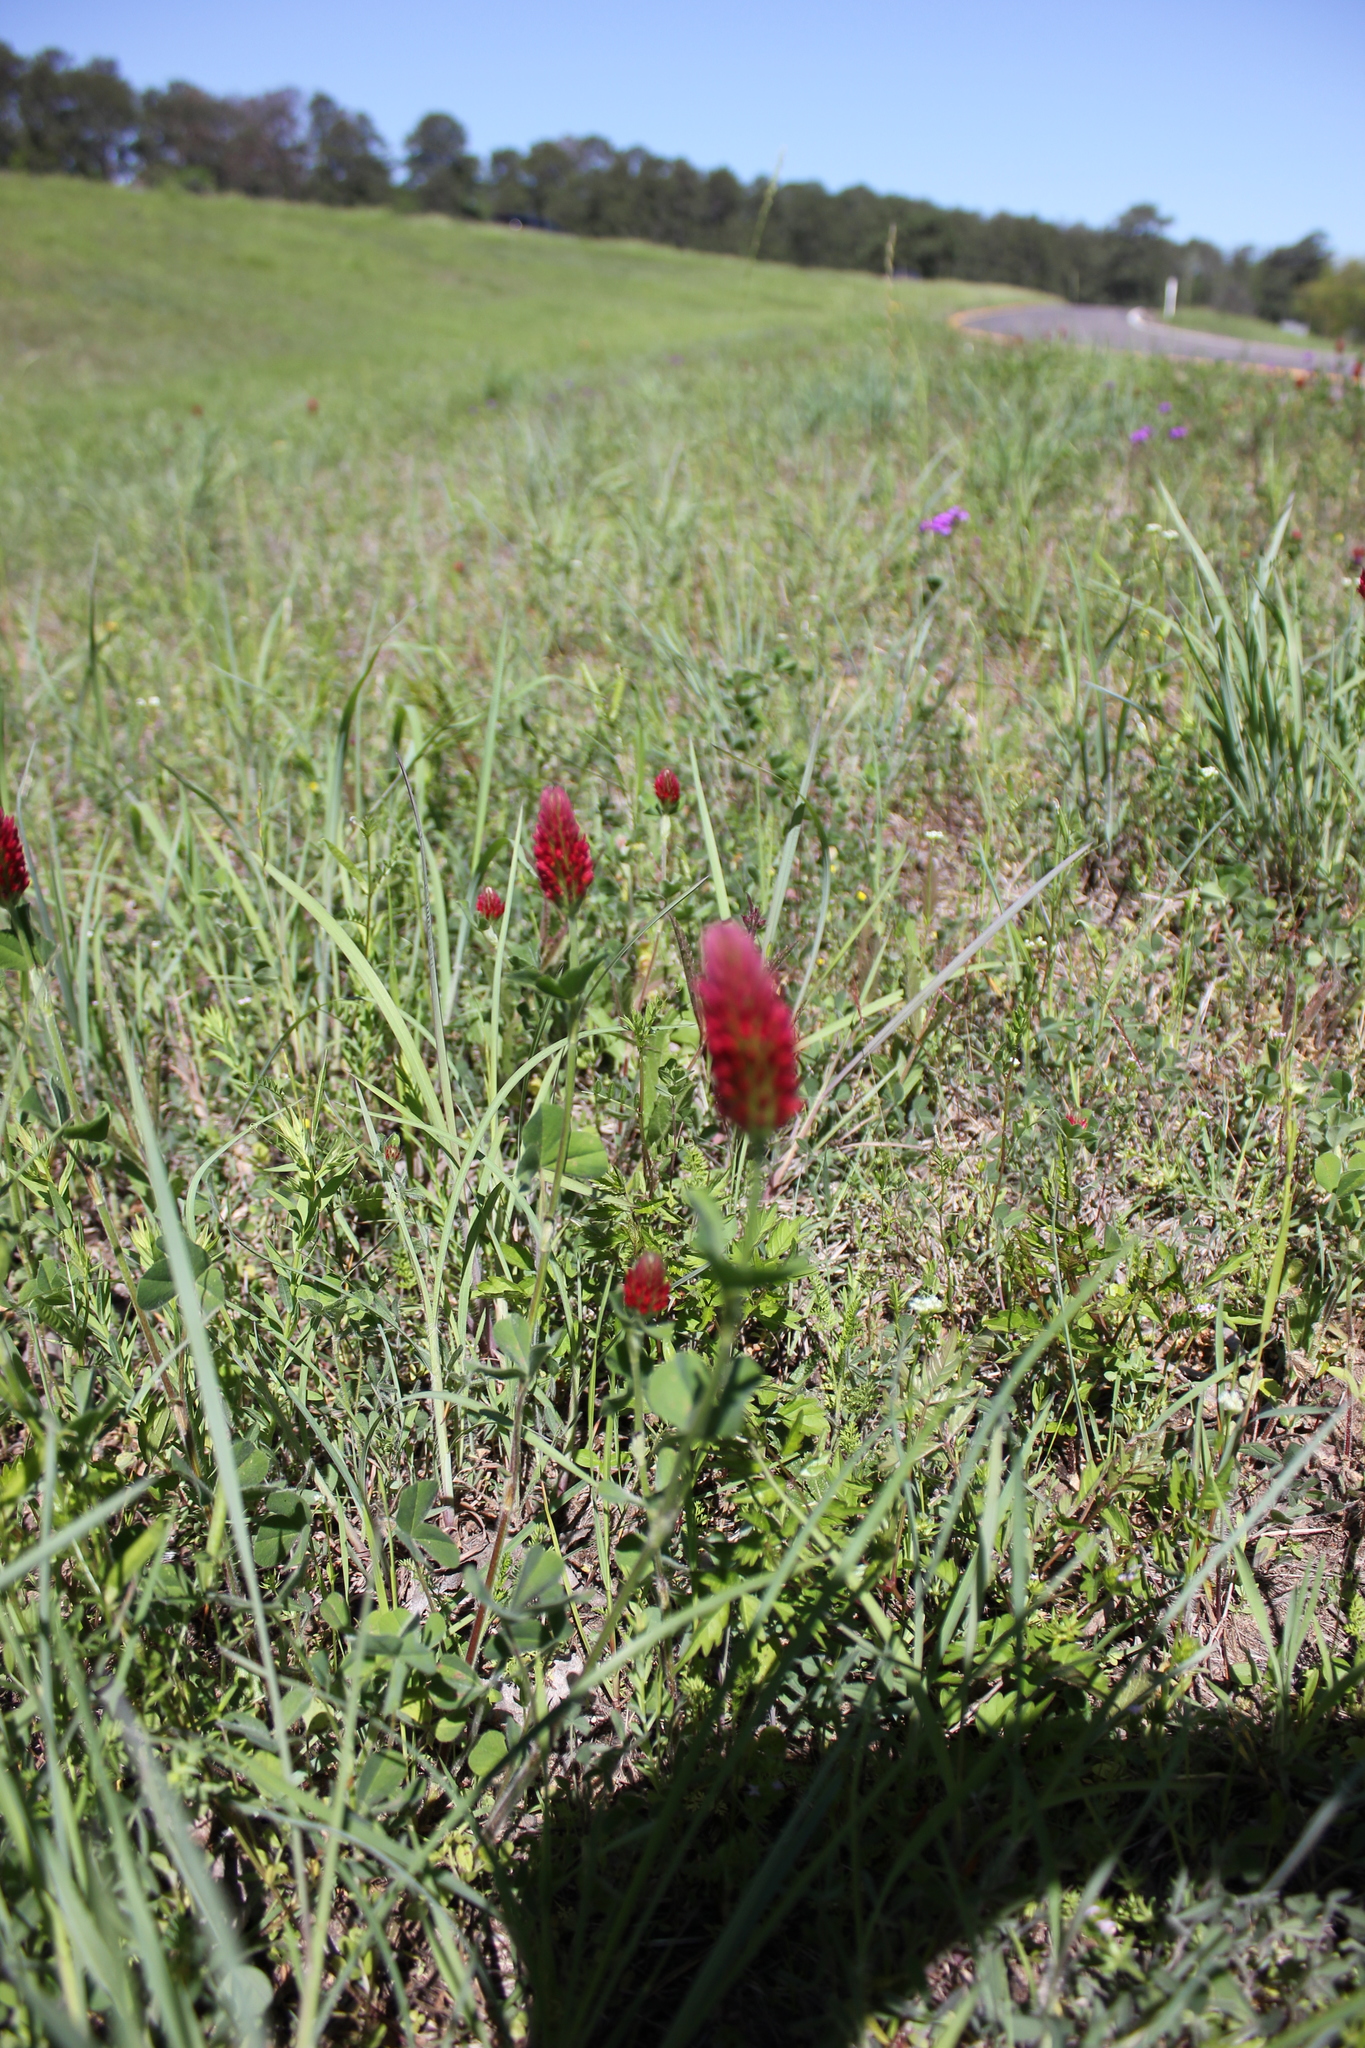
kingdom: Plantae
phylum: Tracheophyta
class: Magnoliopsida
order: Fabales
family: Fabaceae
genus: Trifolium
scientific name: Trifolium incarnatum
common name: Crimson clover
